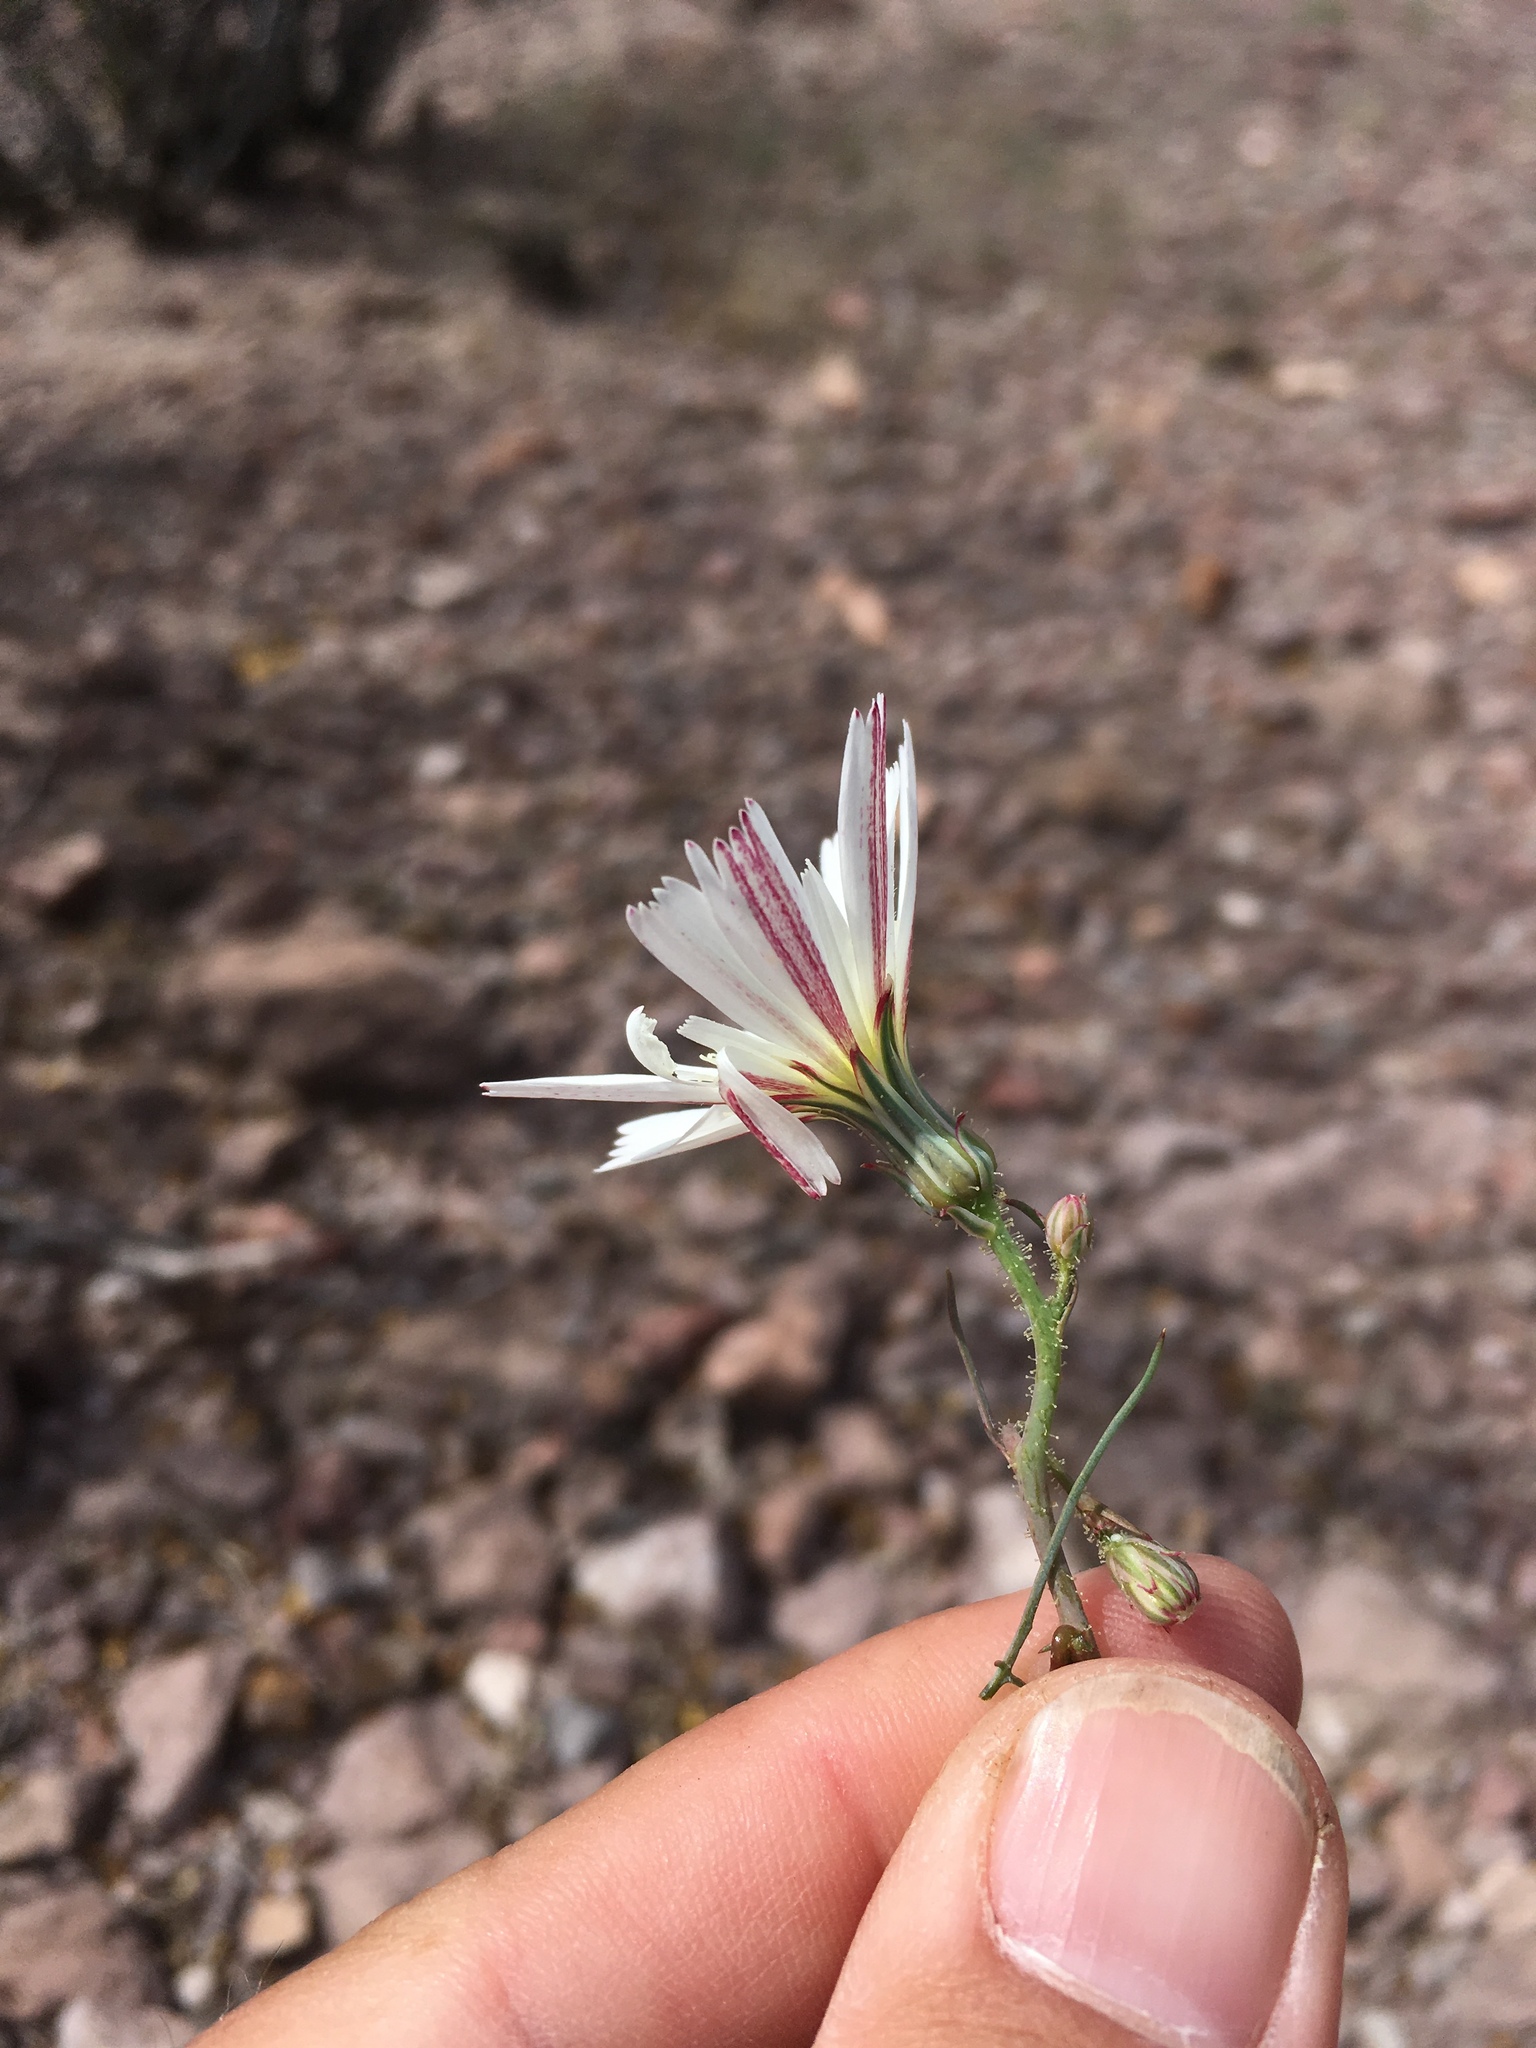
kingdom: Plantae
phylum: Tracheophyta
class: Magnoliopsida
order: Asterales
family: Asteraceae
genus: Calycoseris
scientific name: Calycoseris wrightii
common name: White tackstem
